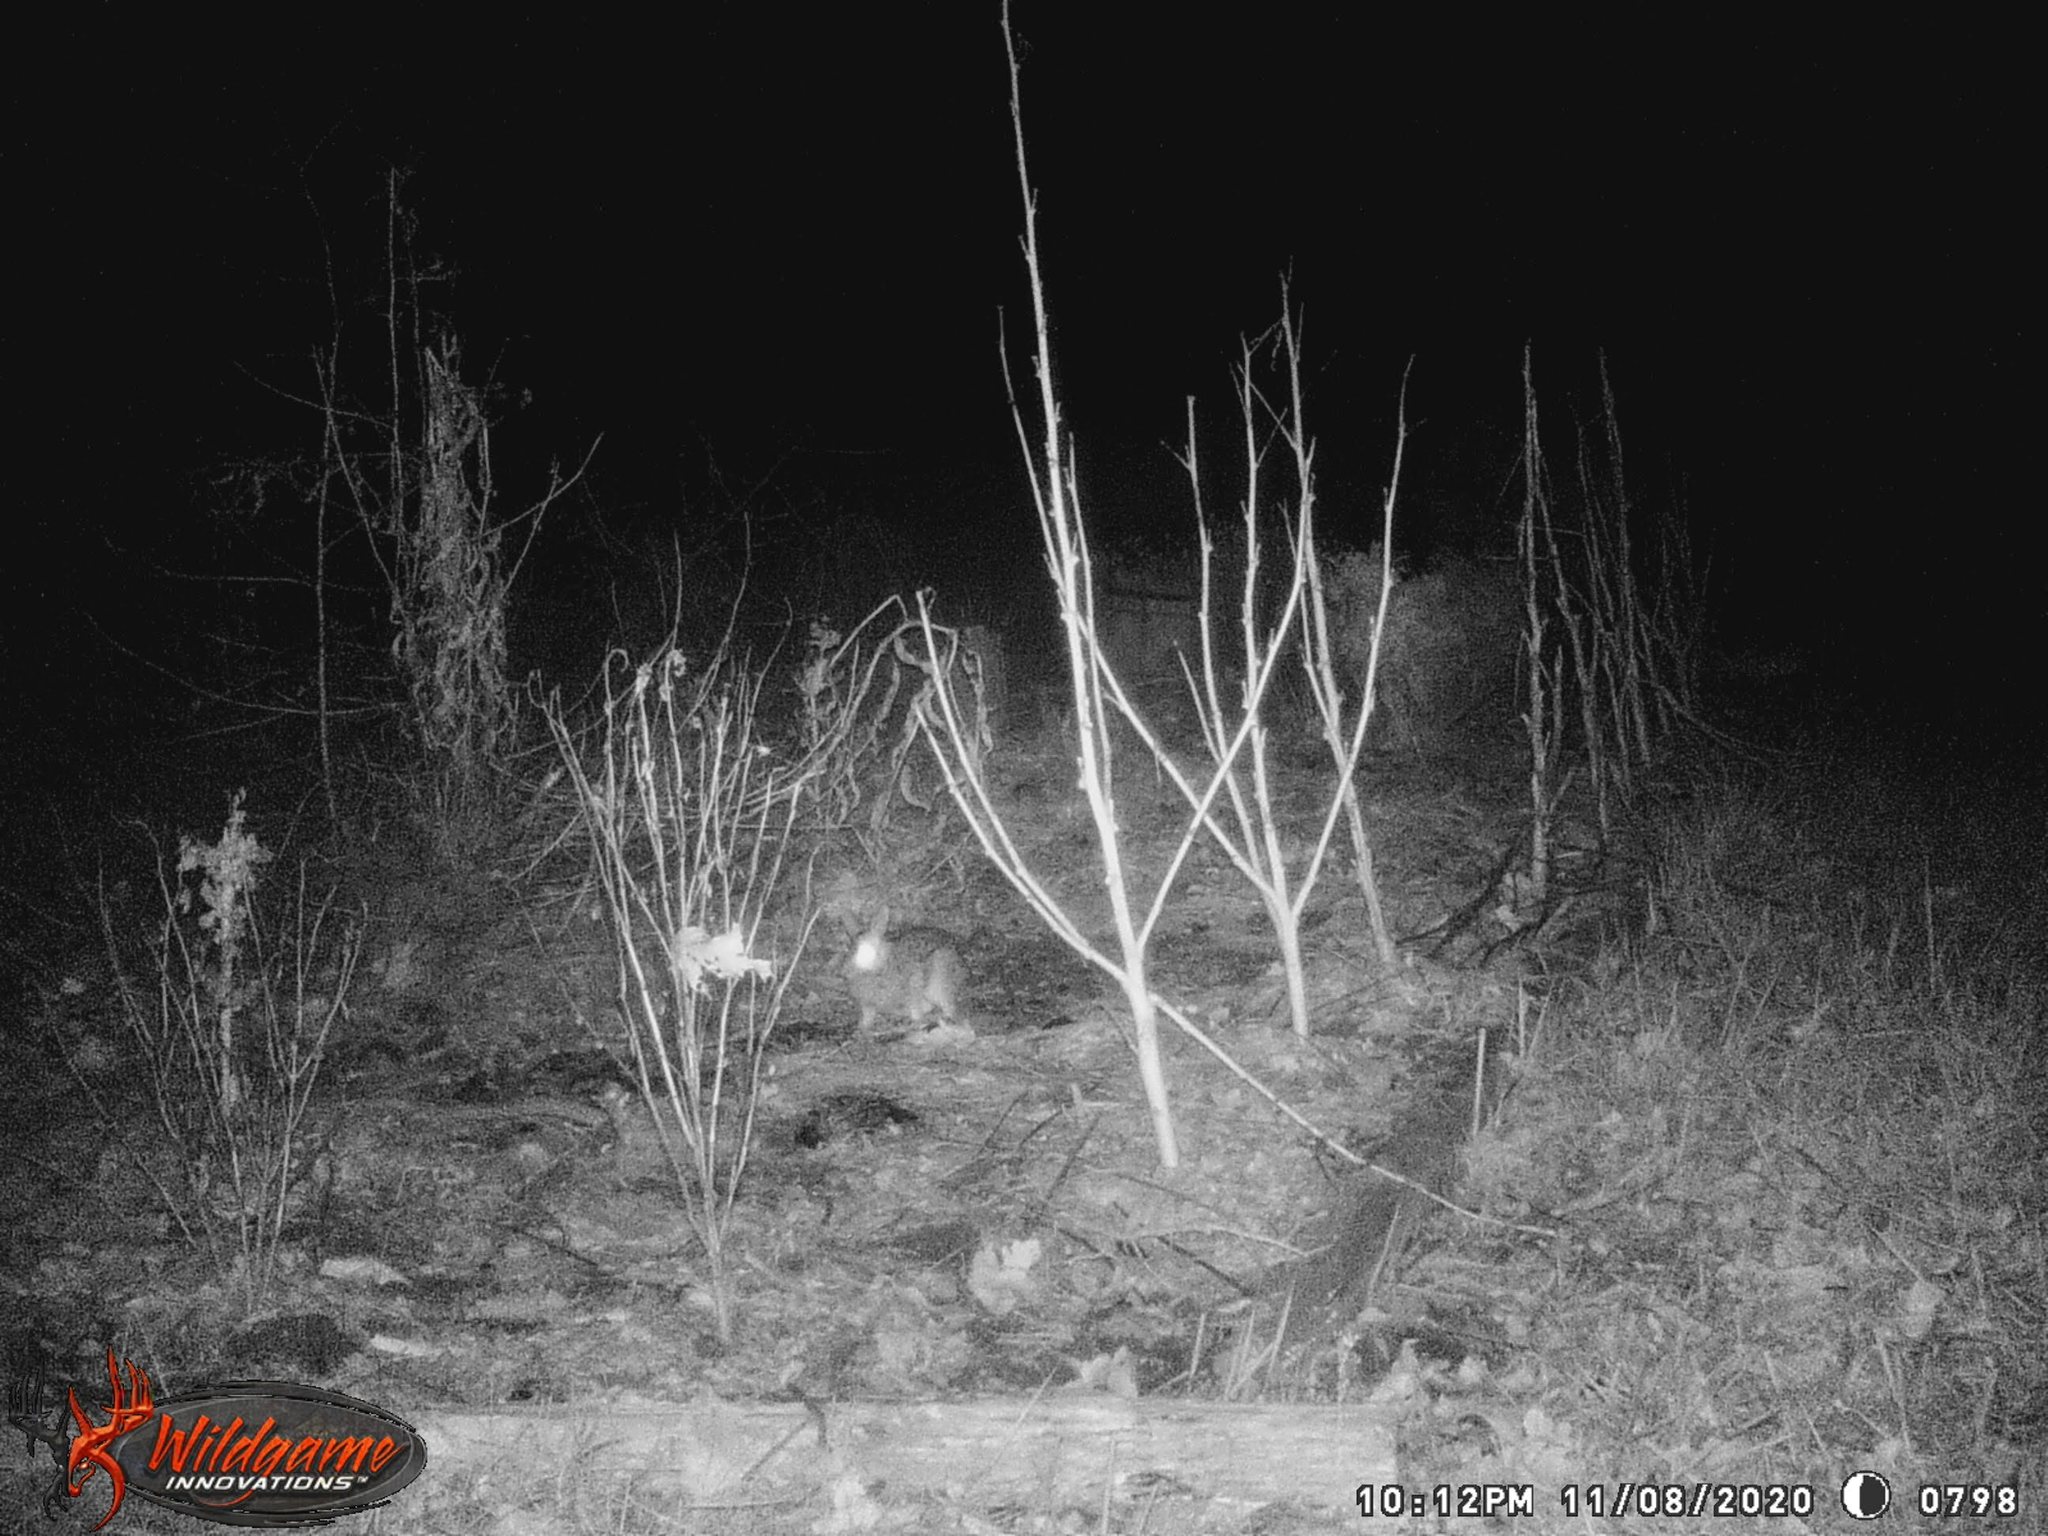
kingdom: Animalia
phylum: Chordata
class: Mammalia
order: Lagomorpha
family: Leporidae
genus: Sylvilagus
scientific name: Sylvilagus floridanus
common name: Eastern cottontail
